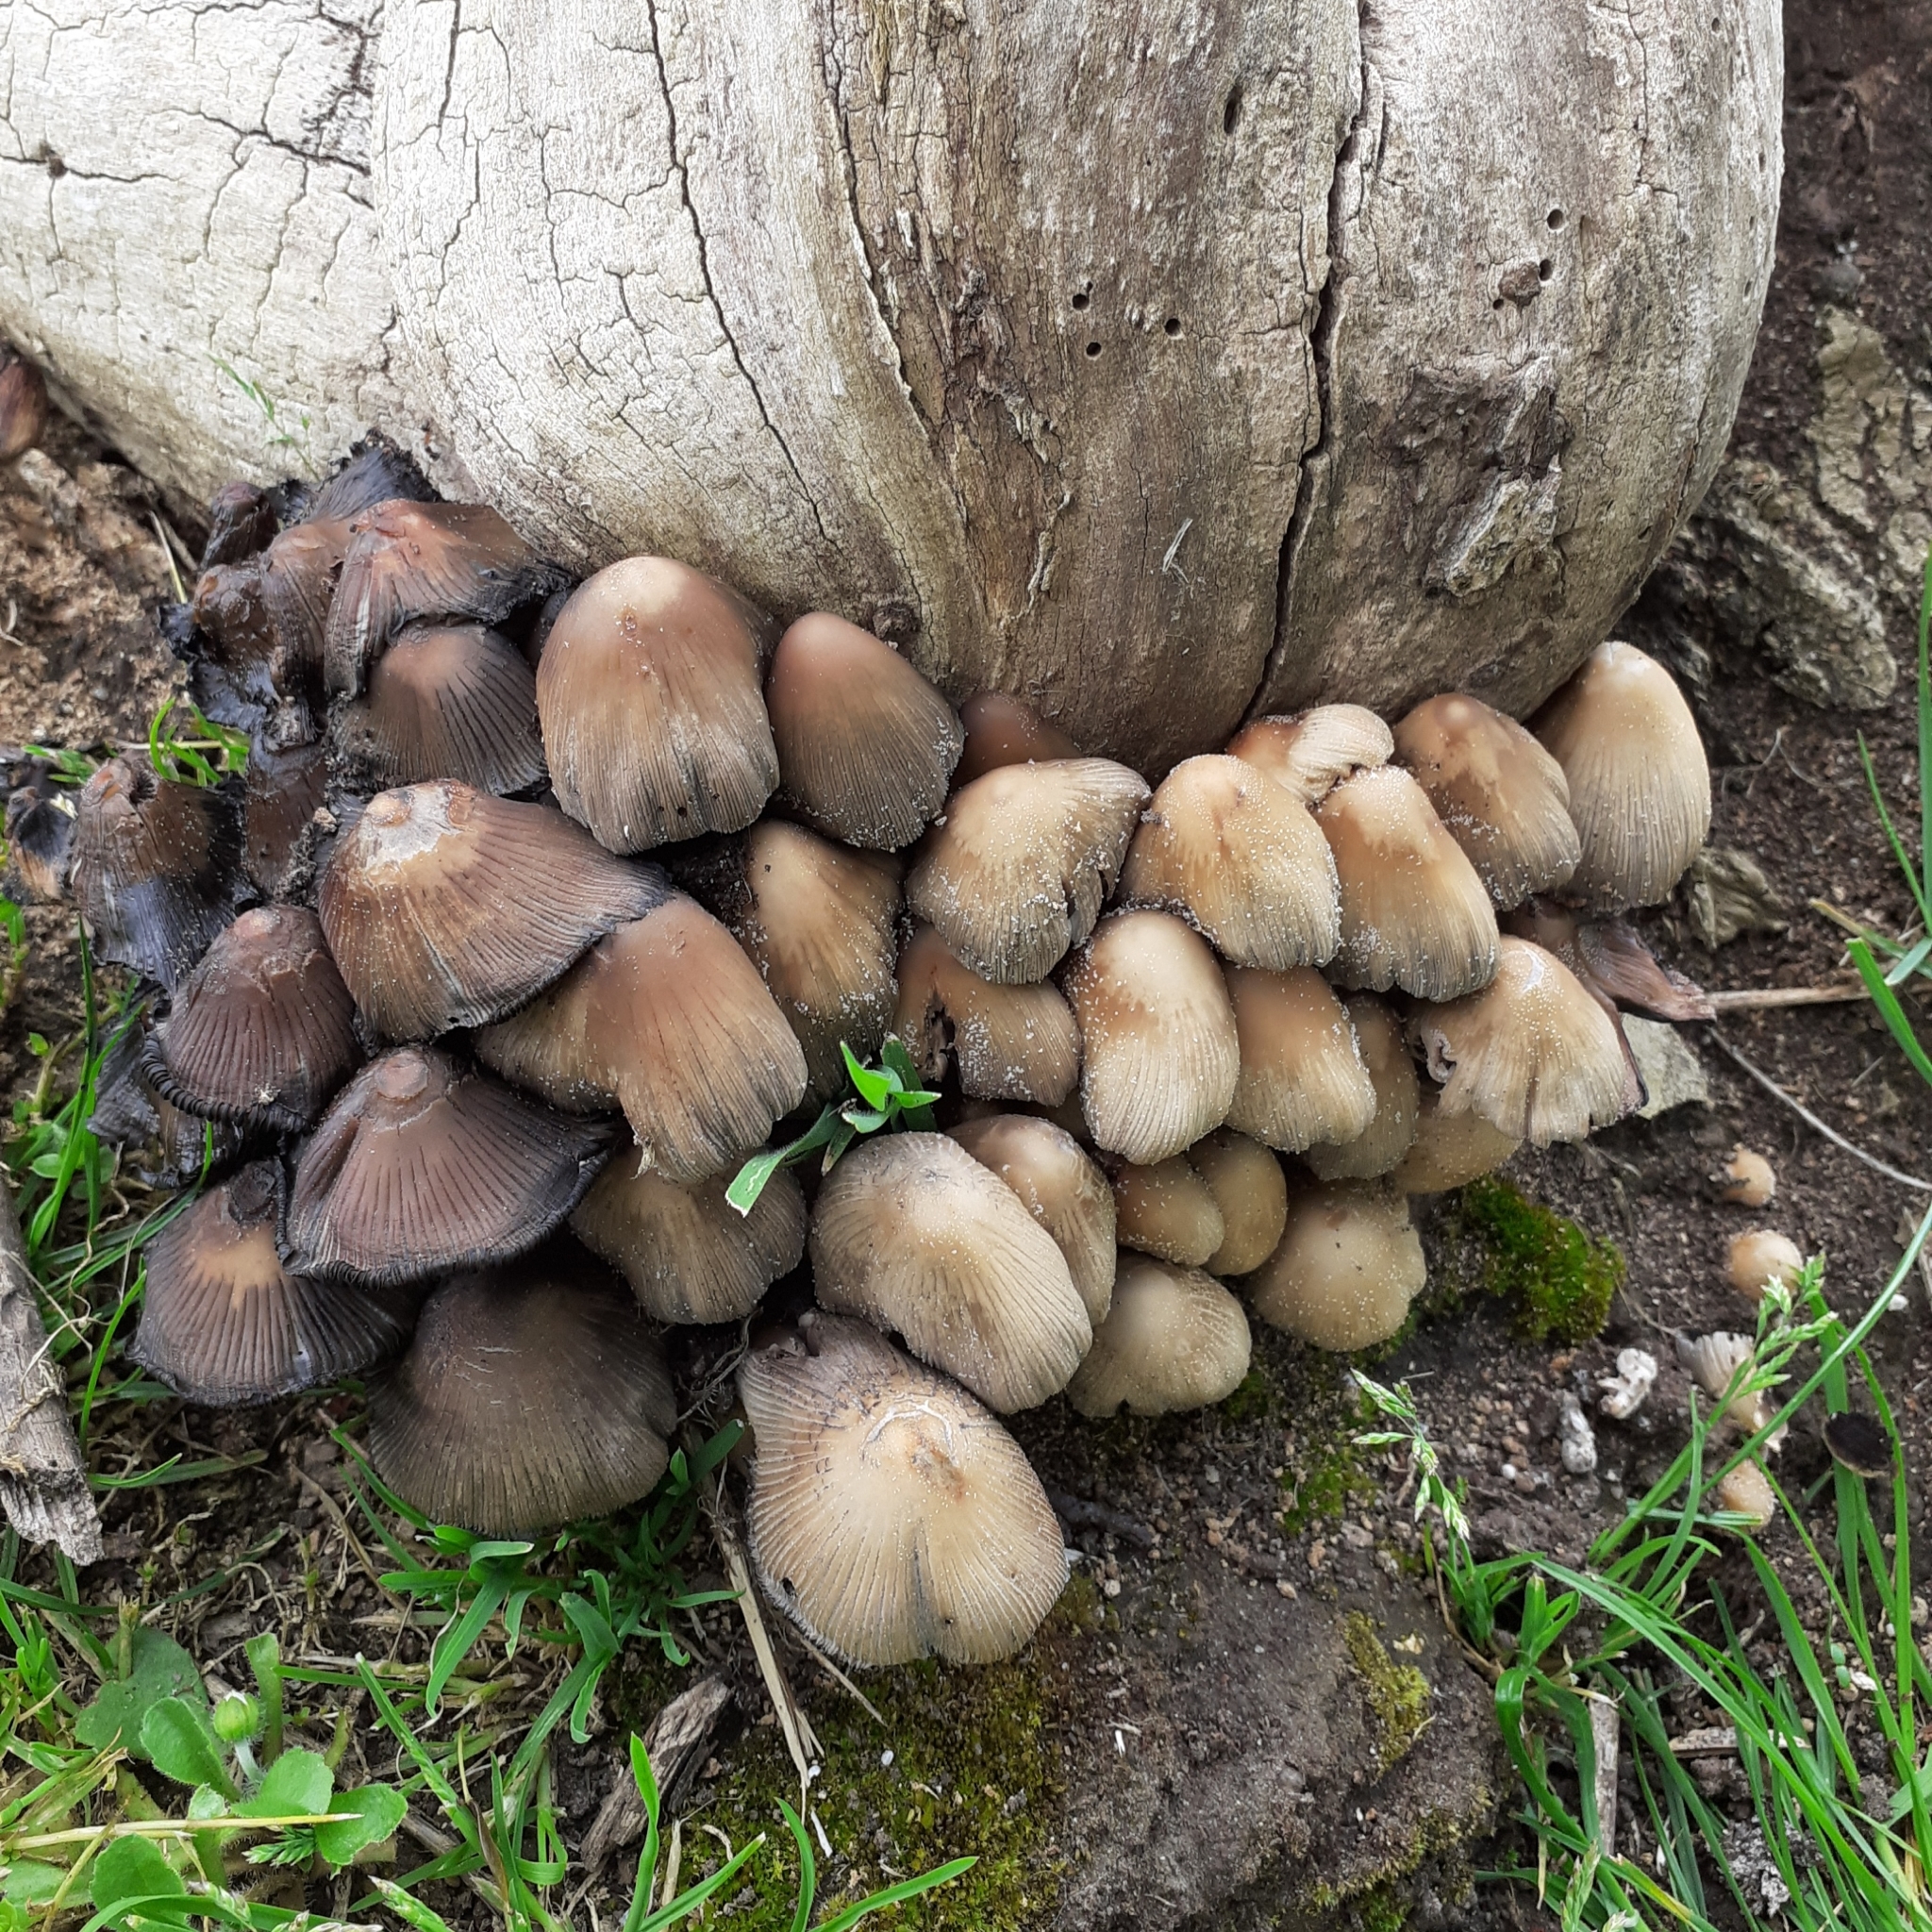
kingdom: Fungi
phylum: Basidiomycota
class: Agaricomycetes
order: Agaricales
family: Psathyrellaceae
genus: Coprinellus
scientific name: Coprinellus micaceus
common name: Glistening ink-cap
